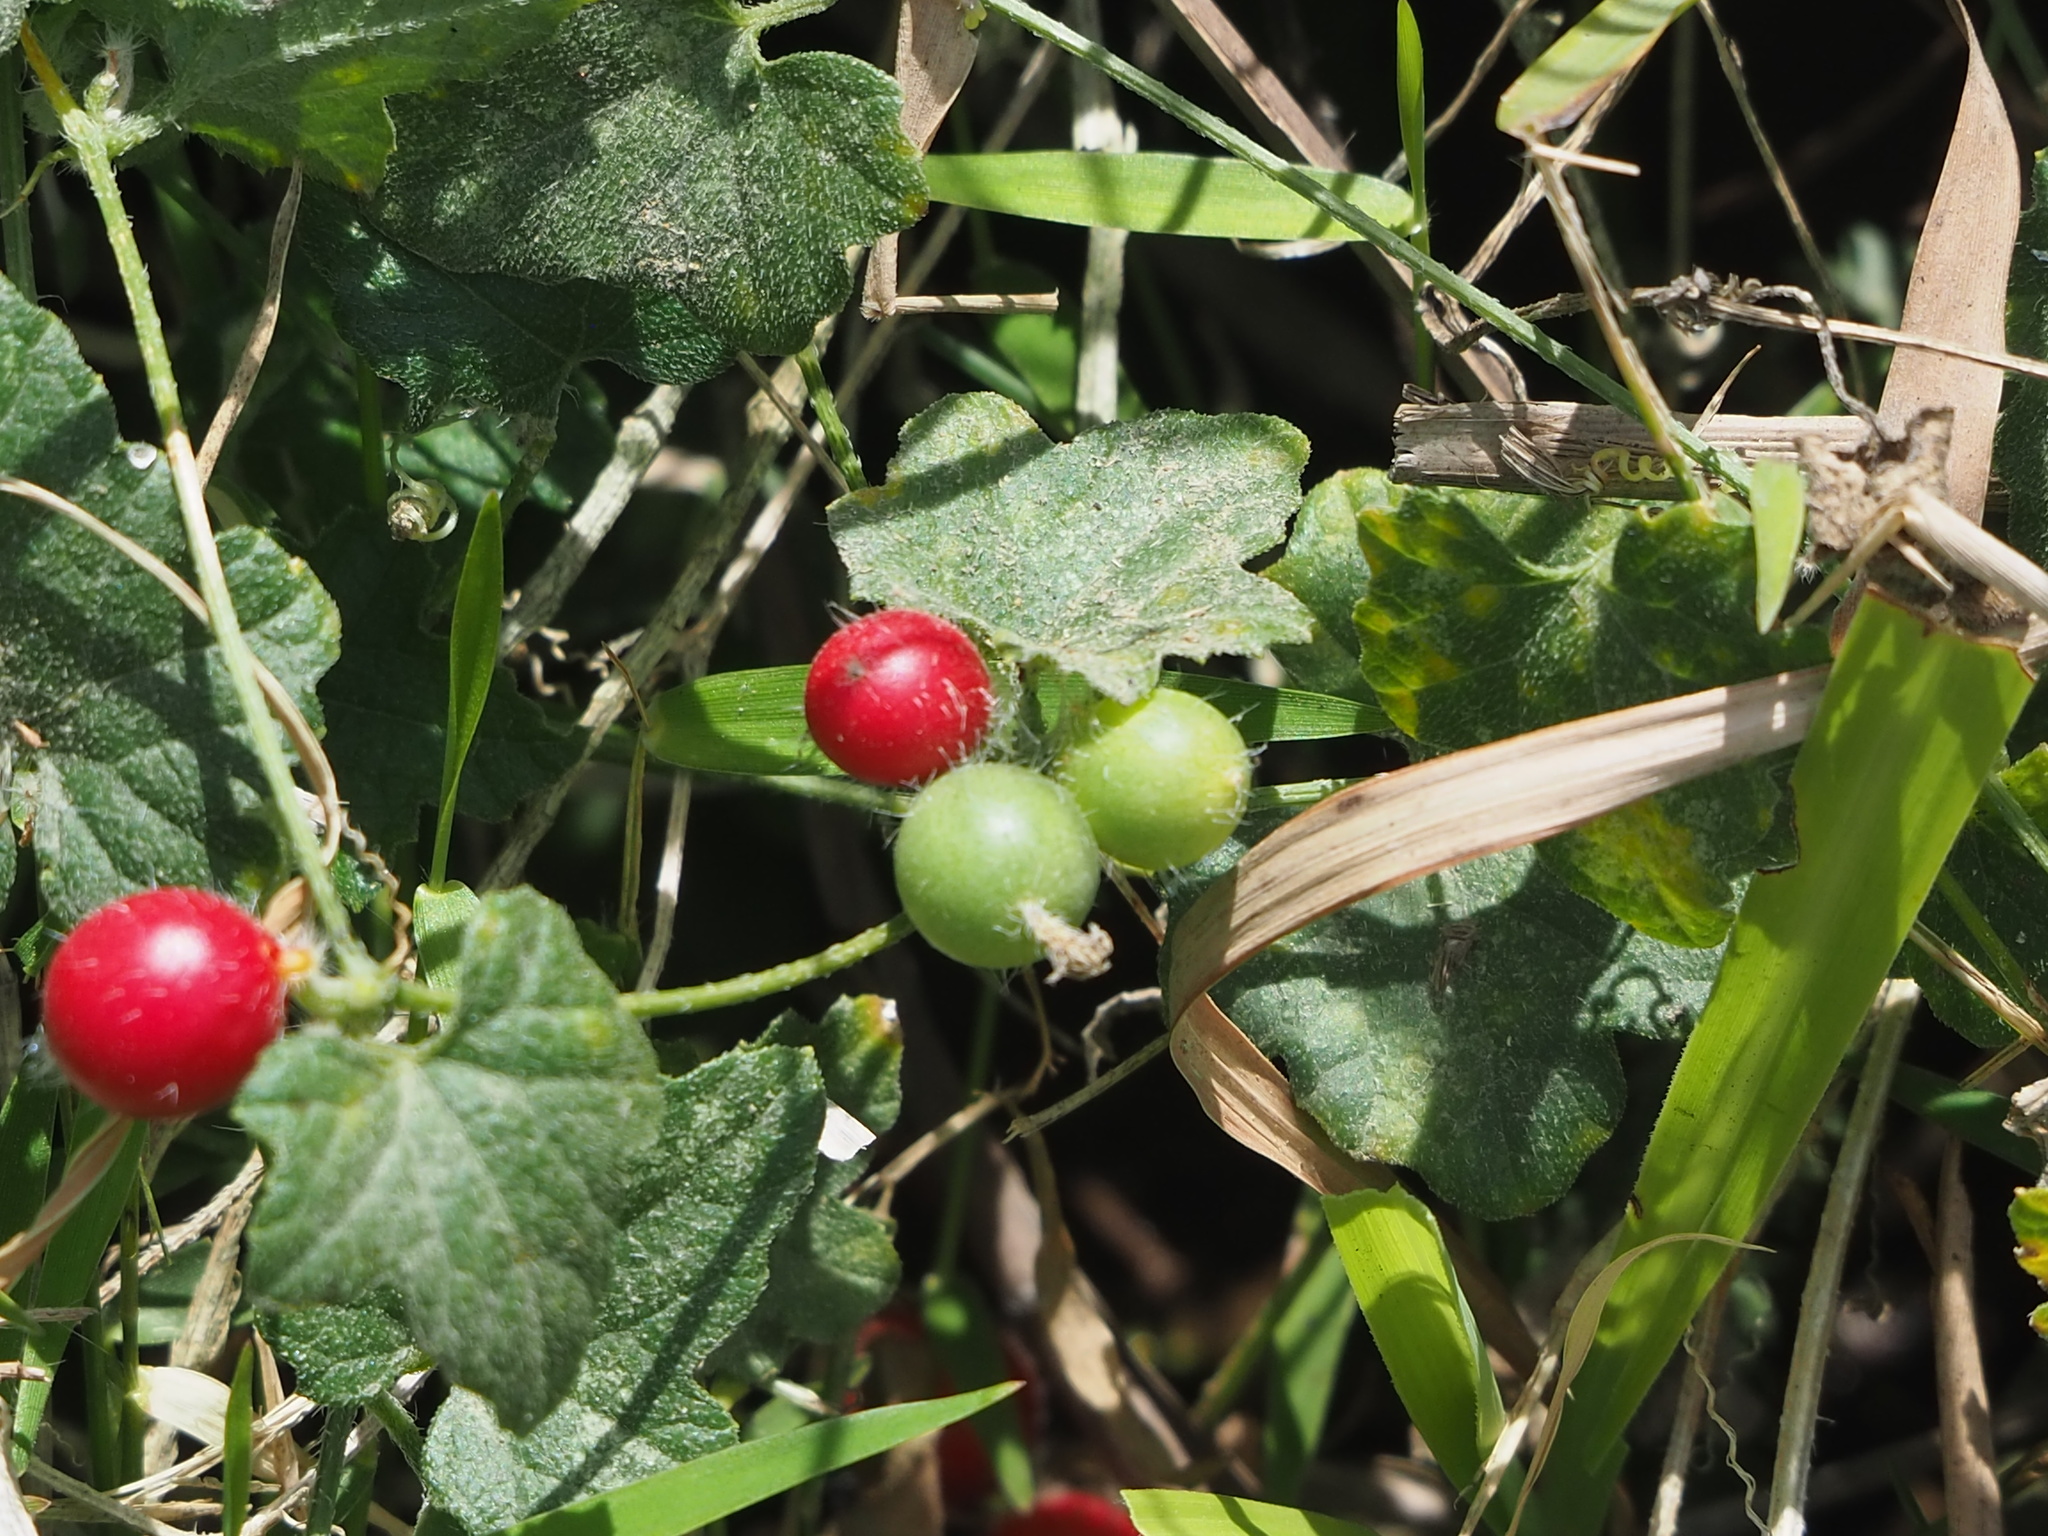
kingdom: Plantae
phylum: Tracheophyta
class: Magnoliopsida
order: Cucurbitales
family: Cucurbitaceae
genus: Cucumis
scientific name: Cucumis maderaspatanus
